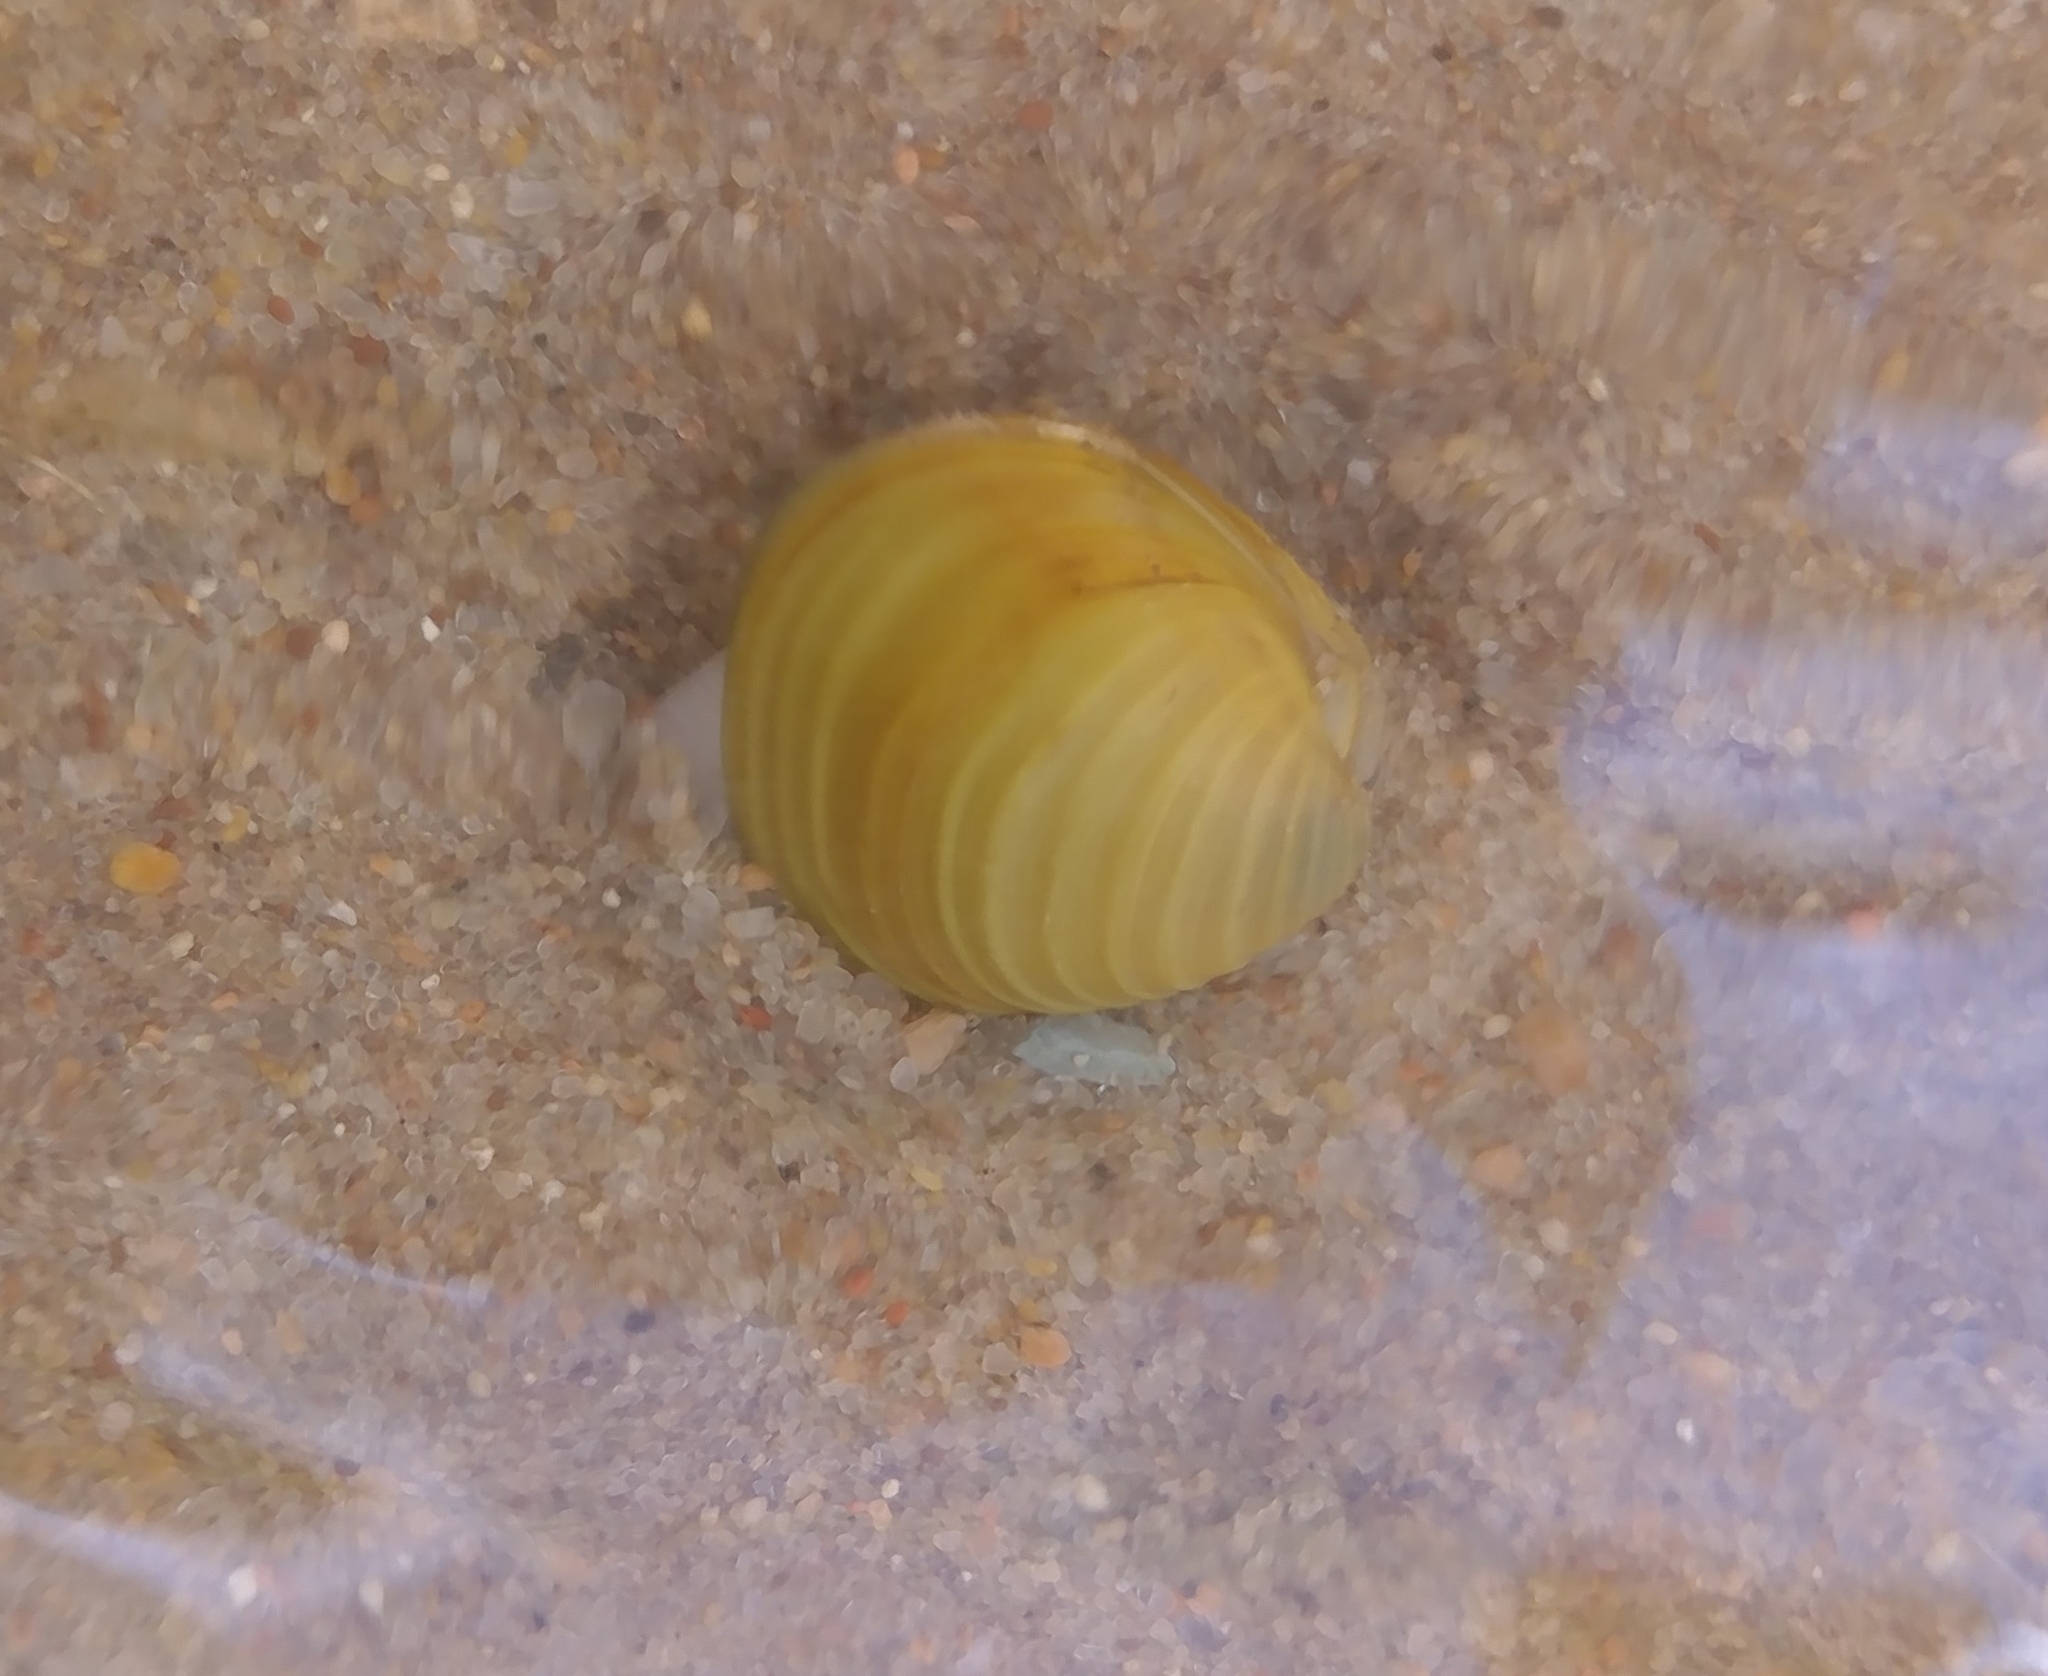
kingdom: Animalia
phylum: Mollusca
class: Bivalvia
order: Venerida
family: Cyrenidae
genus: Corbicula
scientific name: Corbicula fluminea
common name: Asian clam
